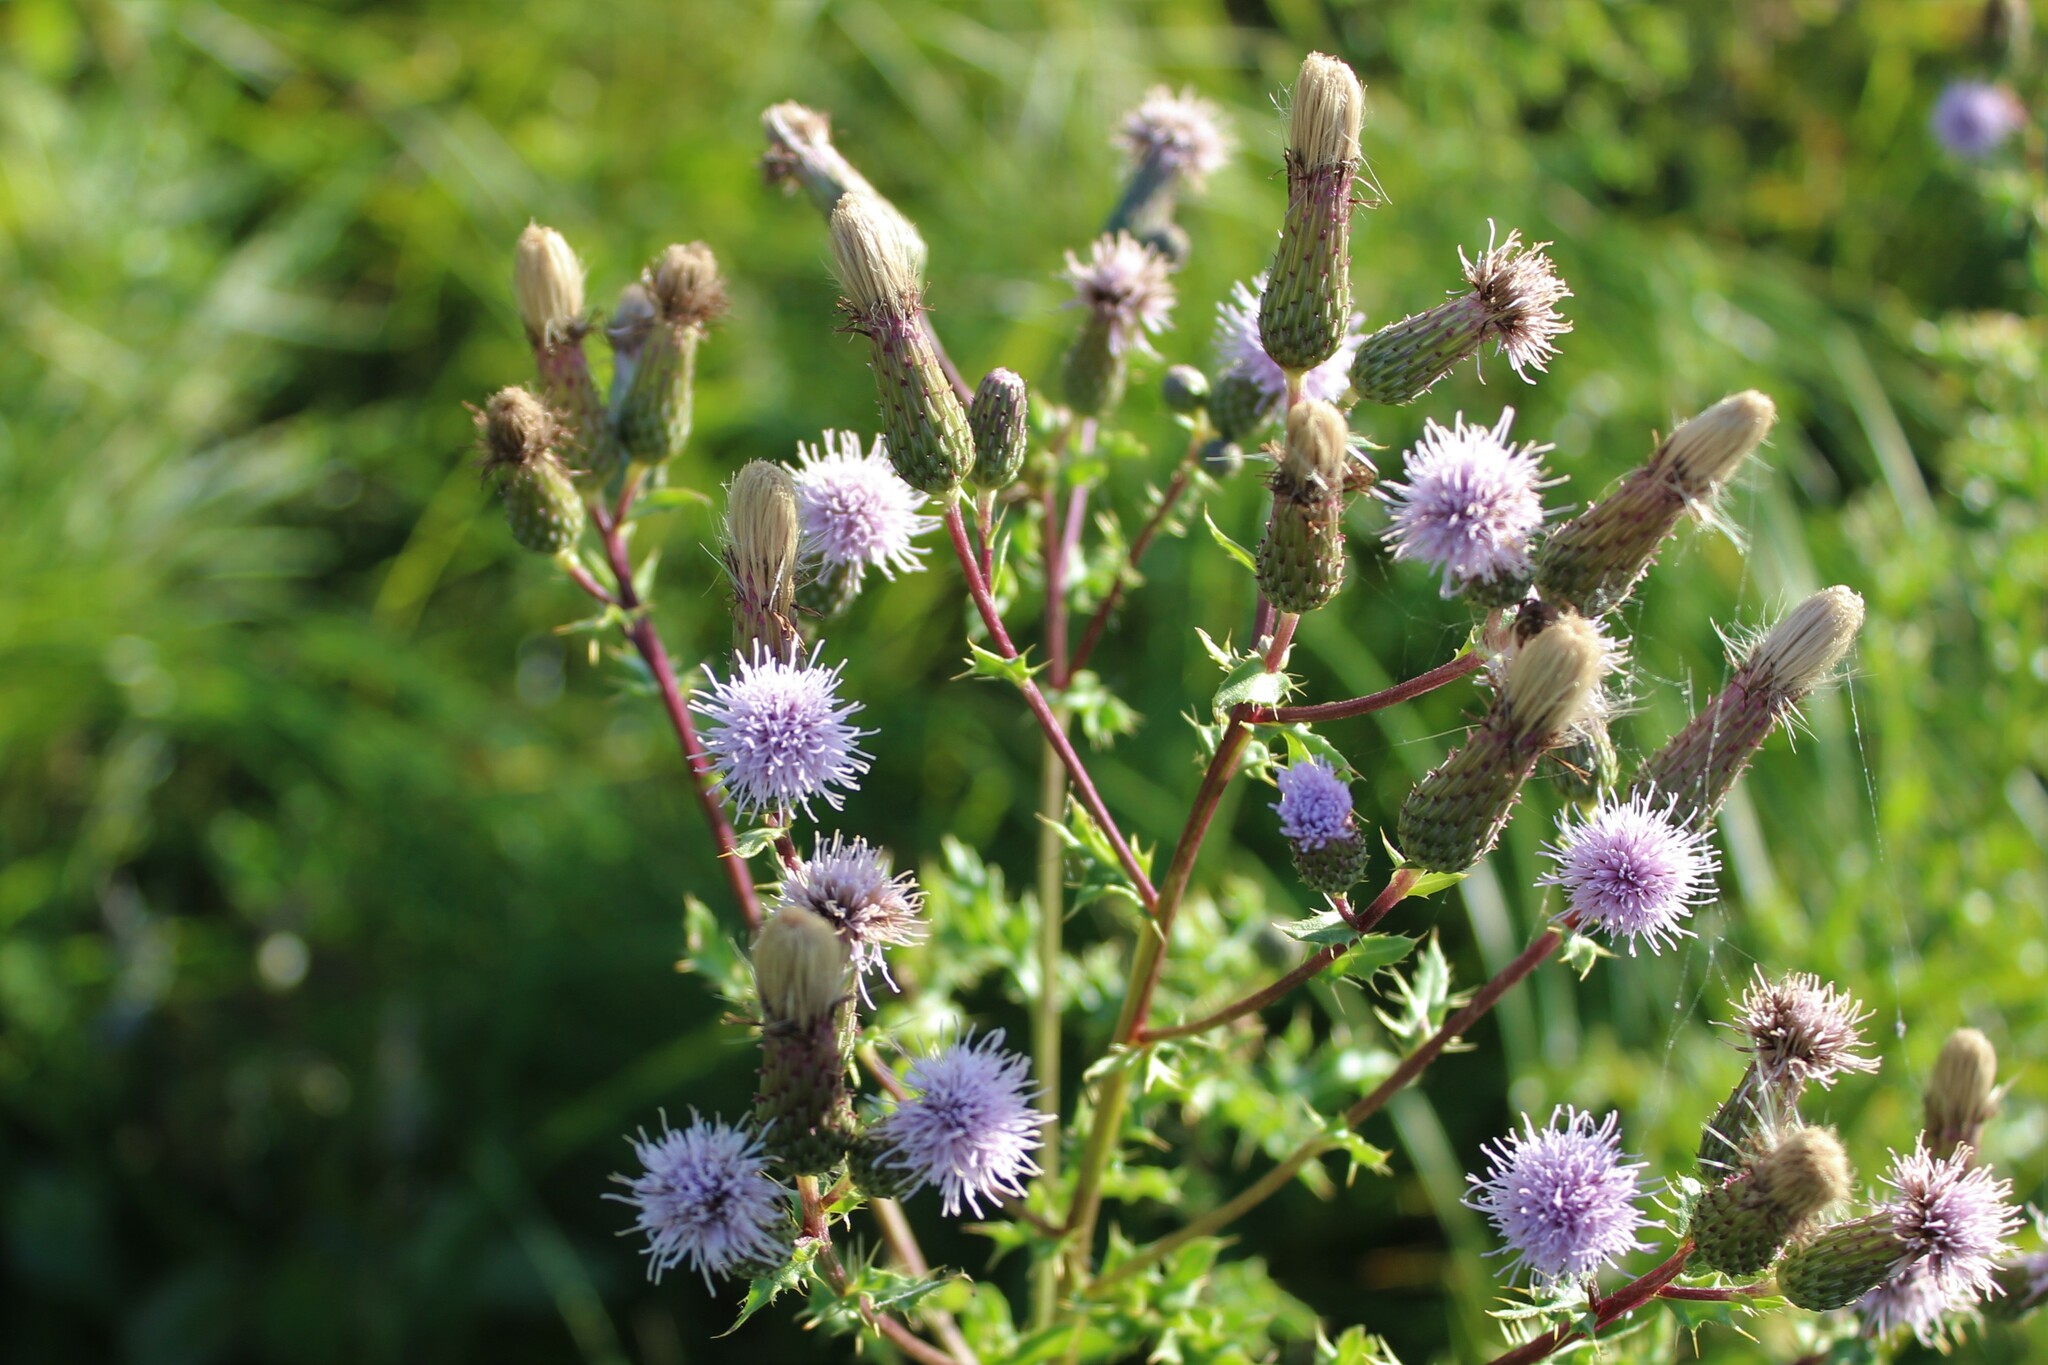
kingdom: Plantae
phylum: Tracheophyta
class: Magnoliopsida
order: Asterales
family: Asteraceae
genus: Cirsium
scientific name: Cirsium arvense
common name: Creeping thistle
